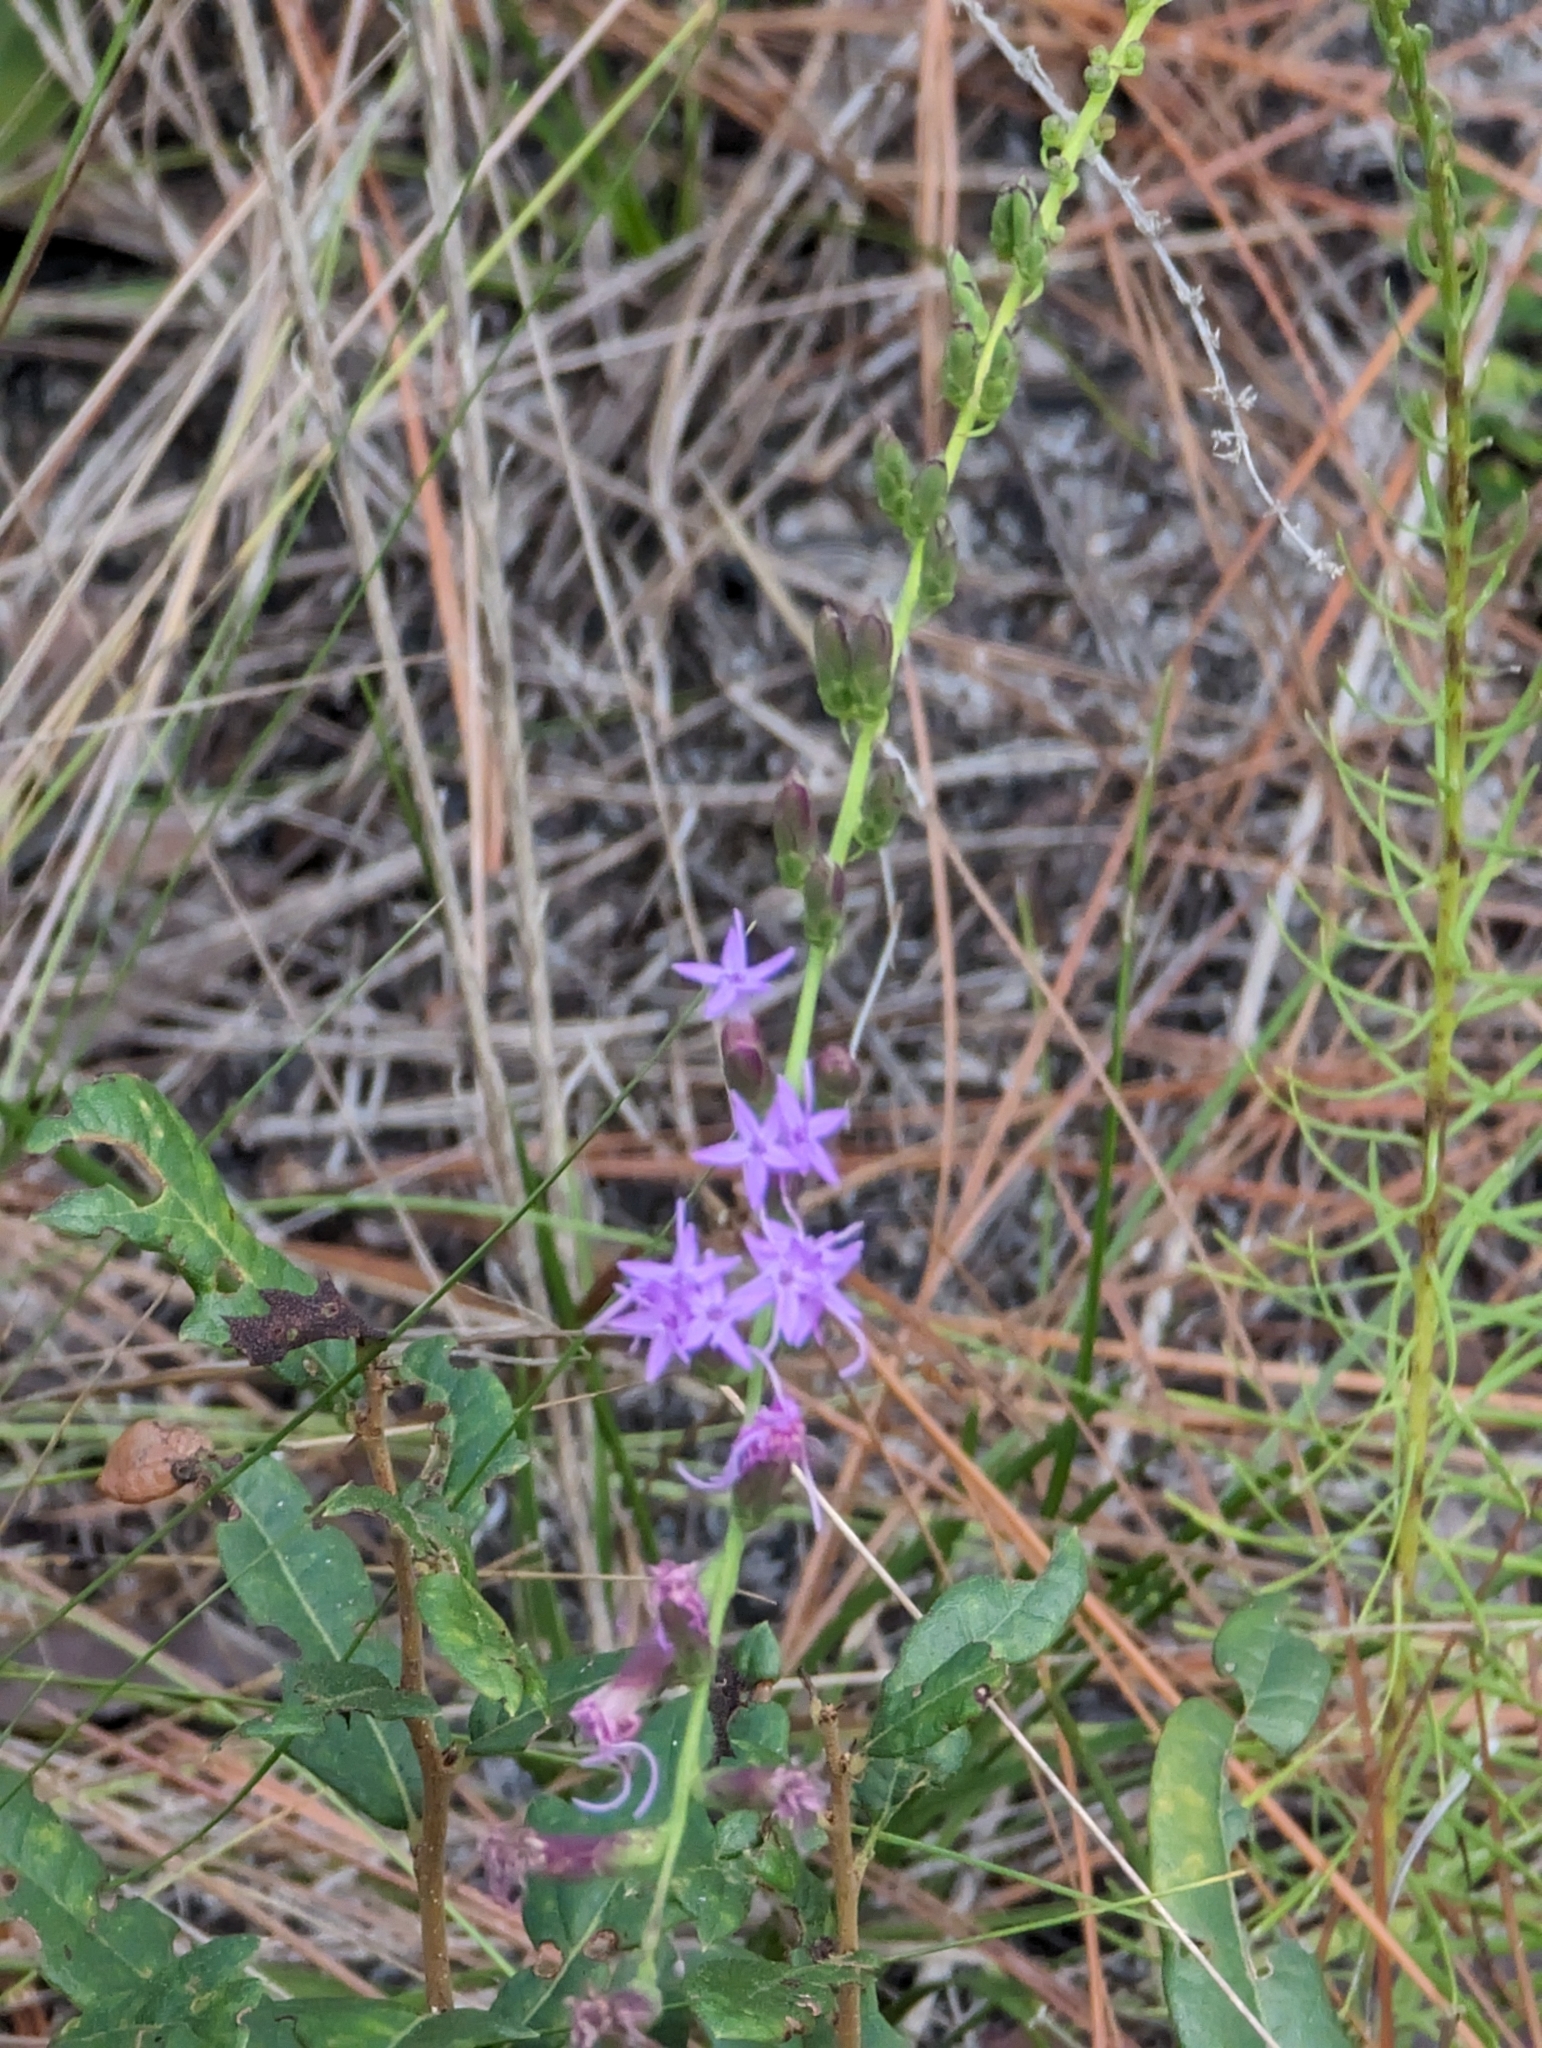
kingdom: Plantae
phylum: Tracheophyta
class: Magnoliopsida
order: Asterales
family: Asteraceae
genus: Liatris
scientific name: Liatris pauciflora
